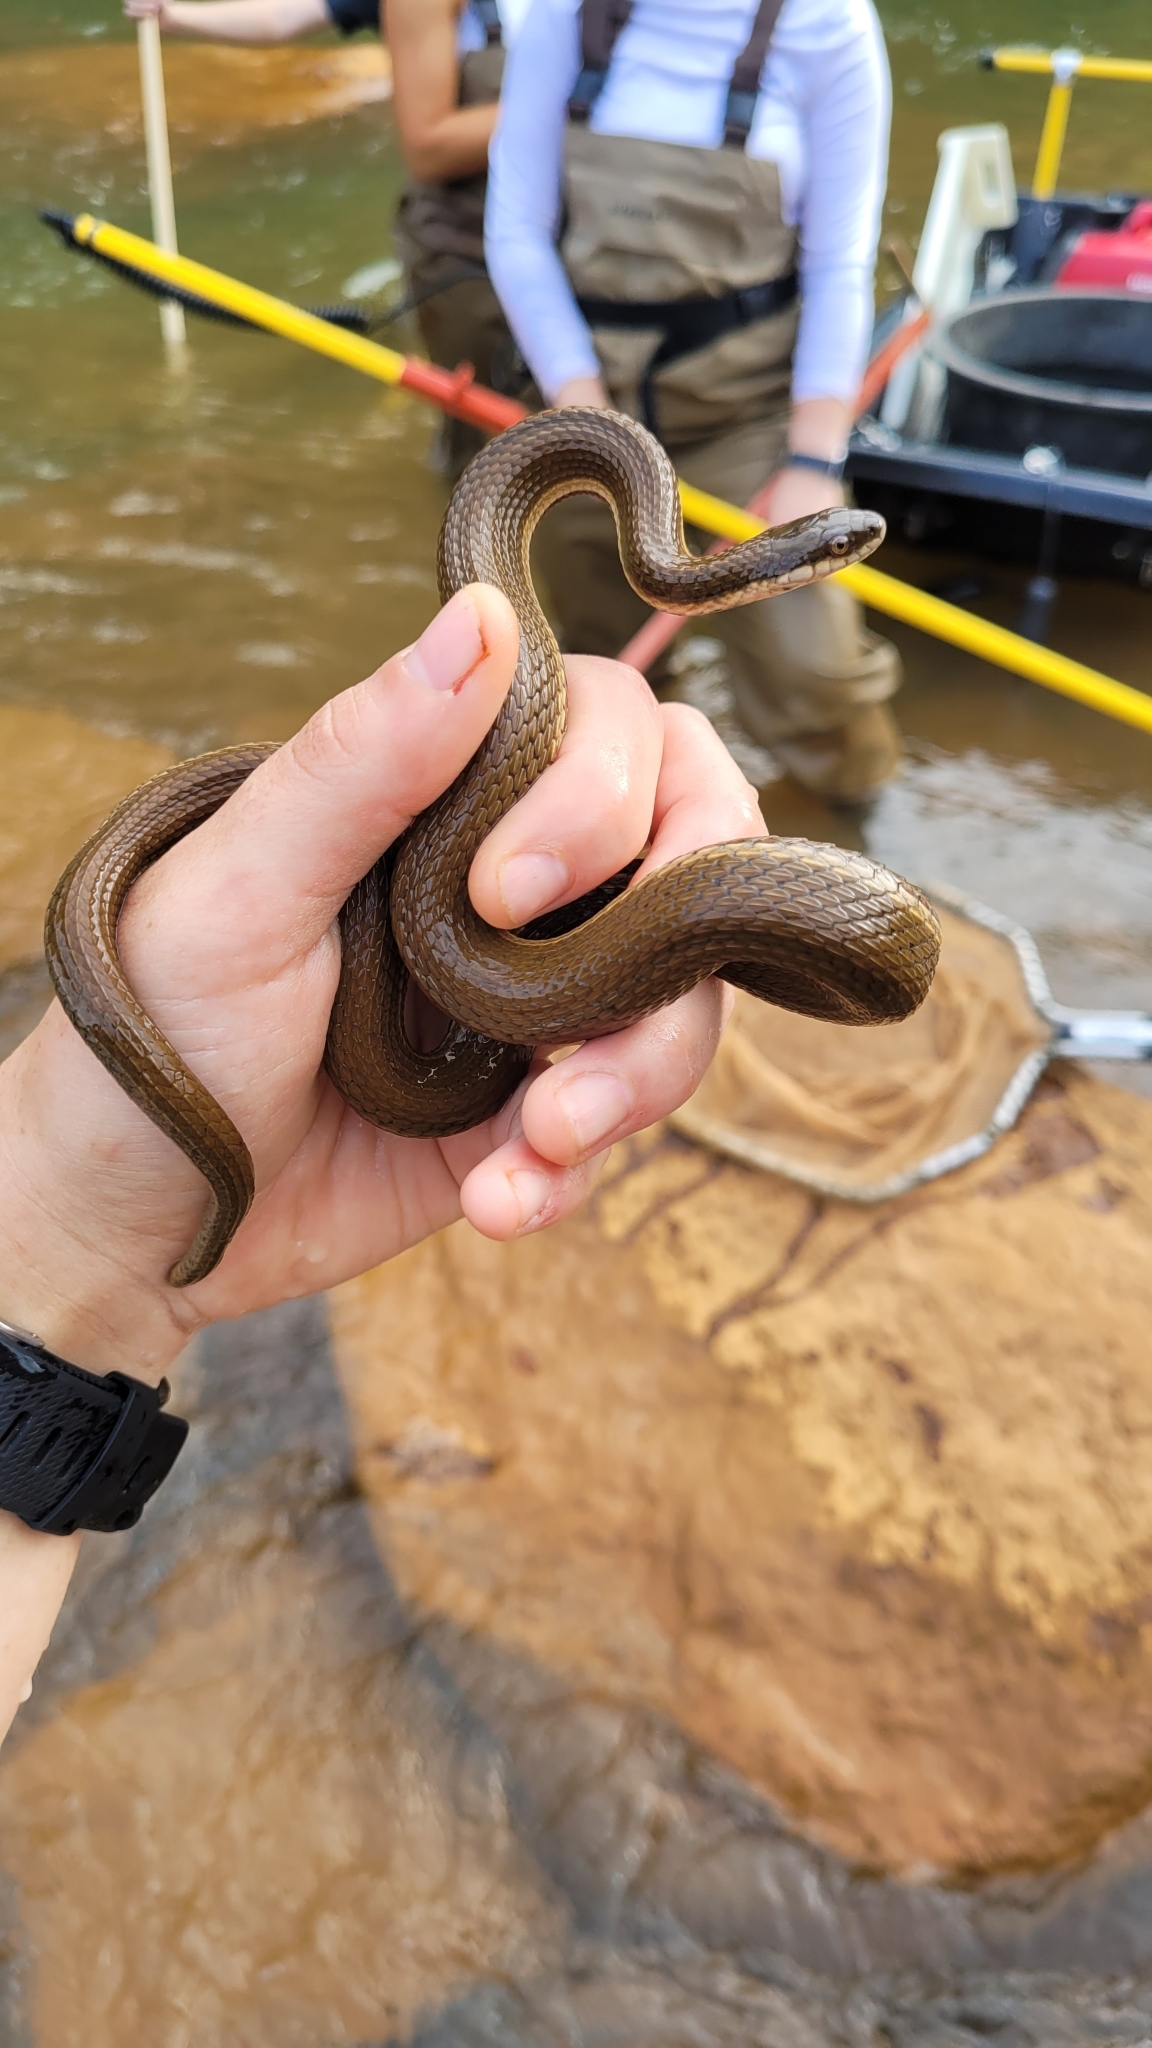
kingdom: Animalia
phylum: Chordata
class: Squamata
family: Colubridae
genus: Regina
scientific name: Regina septemvittata
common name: Queen snake
